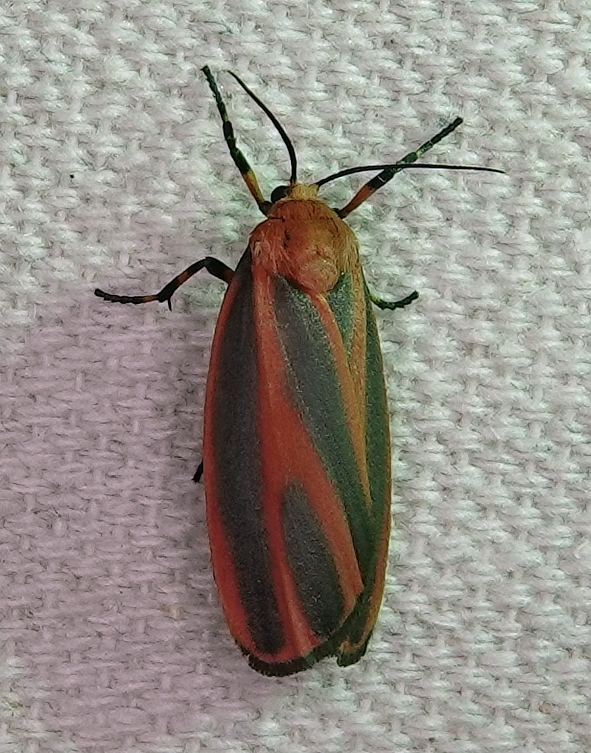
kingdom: Animalia
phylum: Arthropoda
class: Insecta
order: Lepidoptera
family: Erebidae
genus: Hypoprepia
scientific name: Hypoprepia miniata
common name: Scarlet-winged lichen moth
